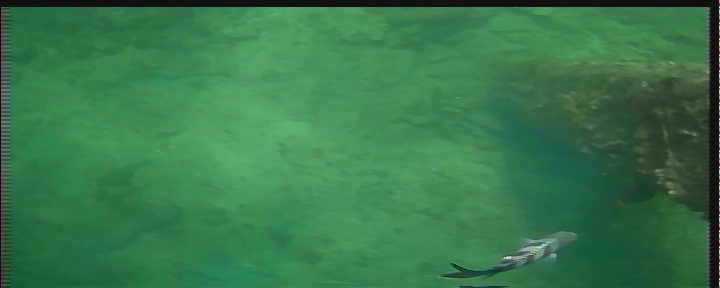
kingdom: Animalia
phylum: Chordata
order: Perciformes
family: Pomacentridae
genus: Abudefduf
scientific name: Abudefduf saxatilis
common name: Sergeant major
